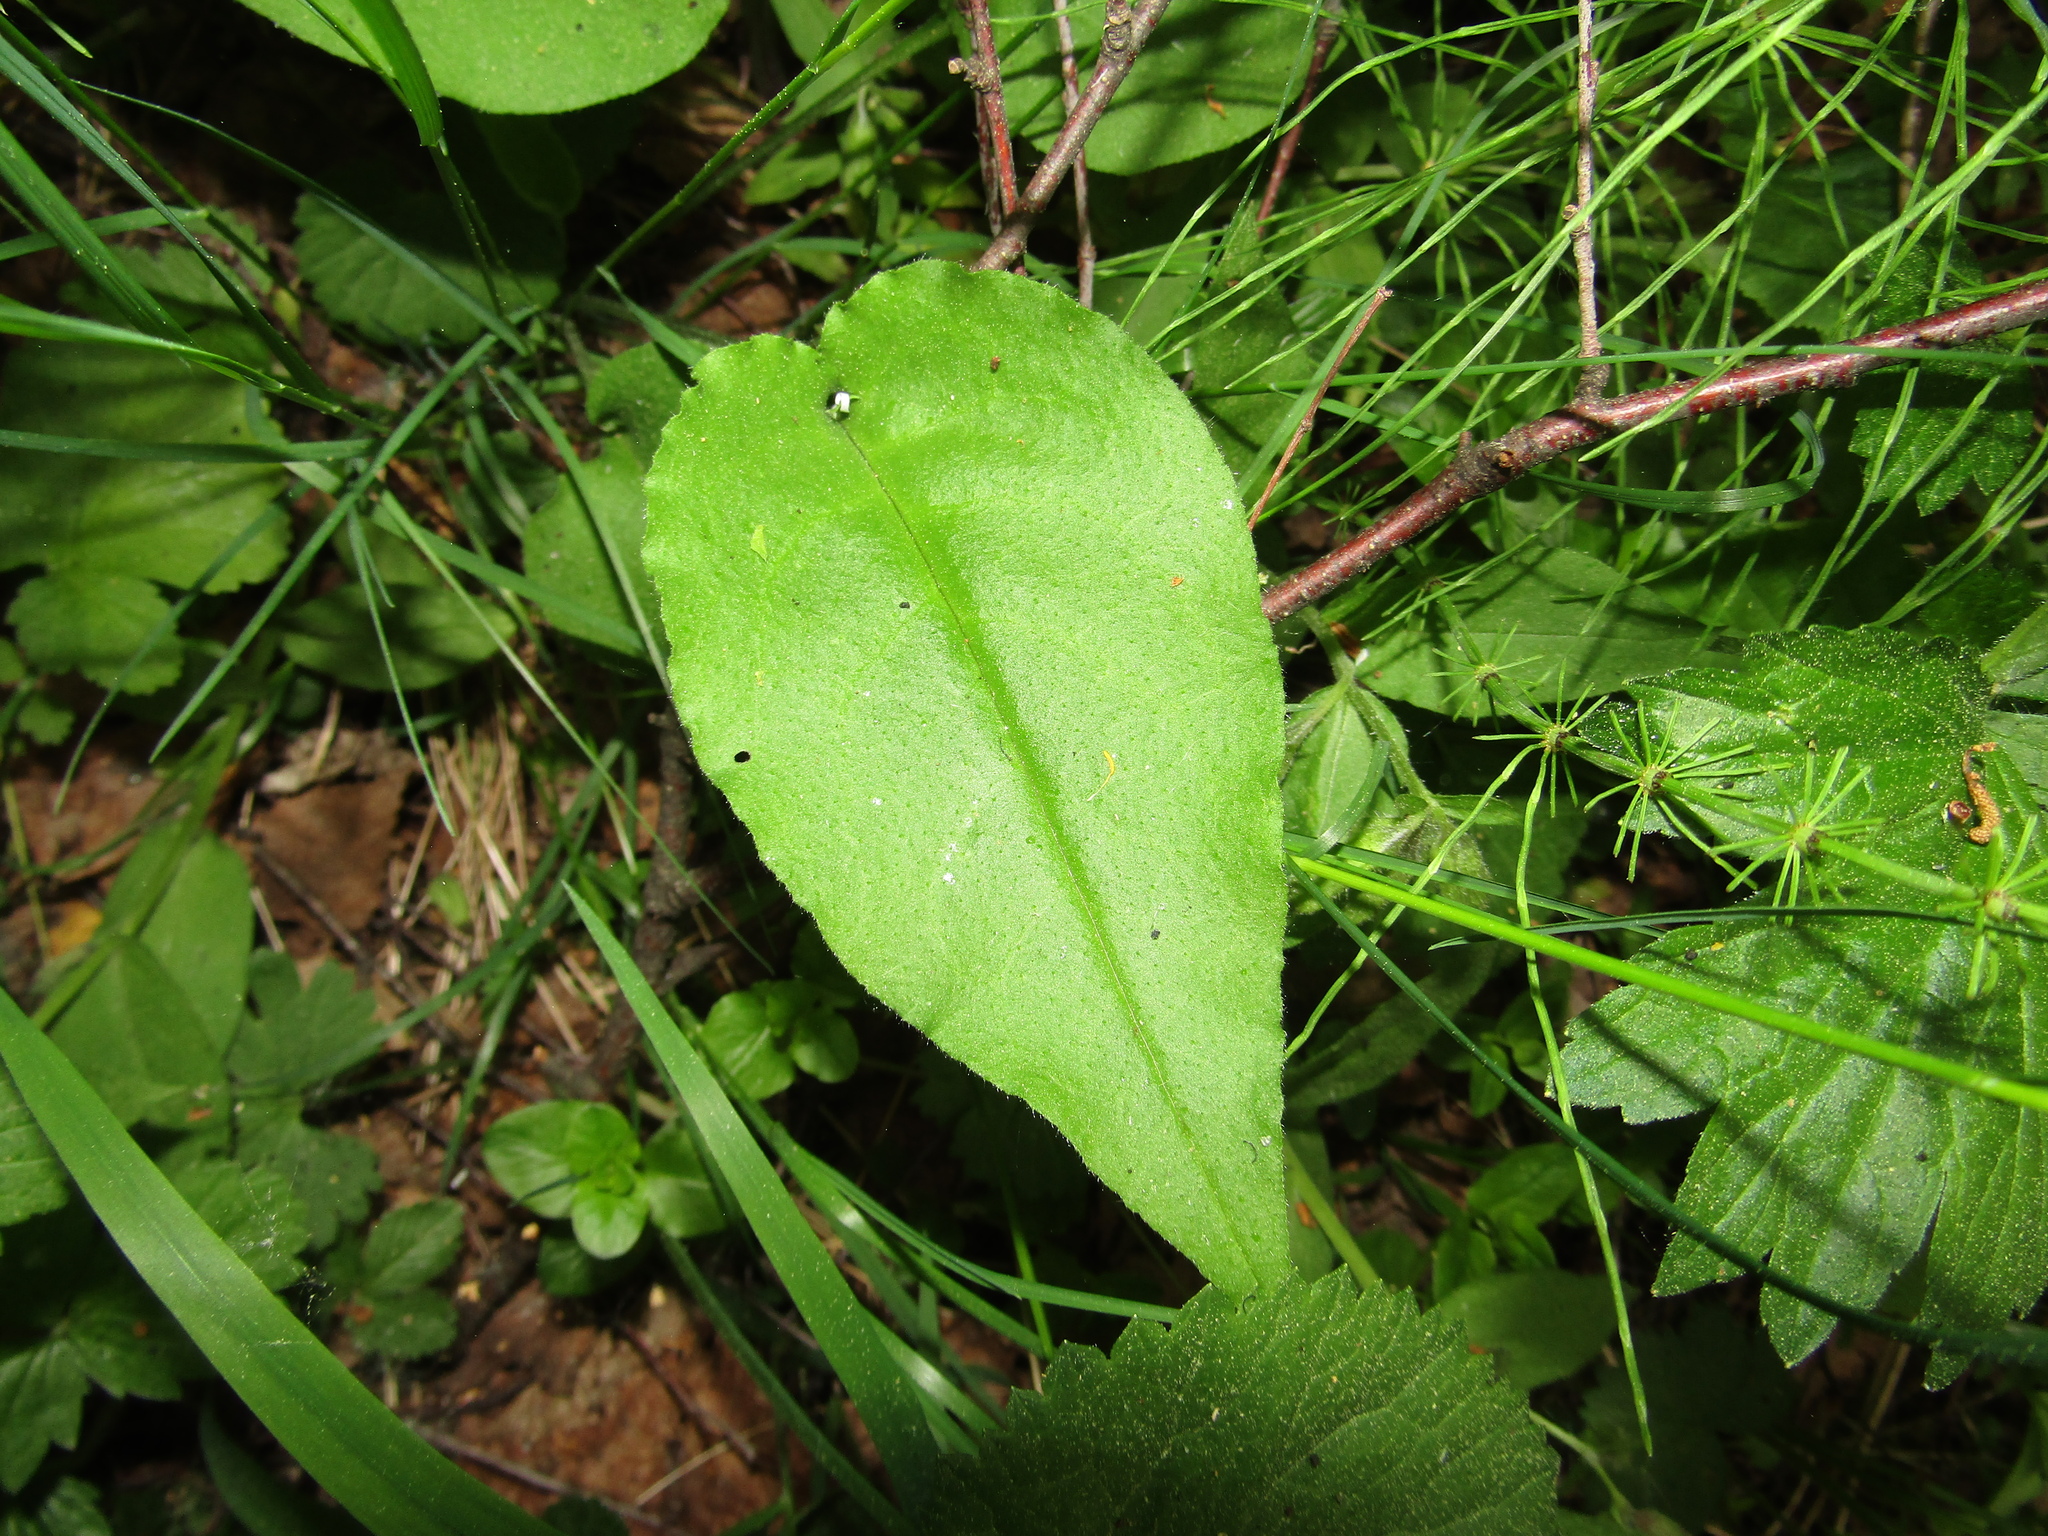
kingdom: Plantae
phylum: Tracheophyta
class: Magnoliopsida
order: Boraginales
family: Boraginaceae
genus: Pulmonaria
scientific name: Pulmonaria obscura
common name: Suffolk lungwort
